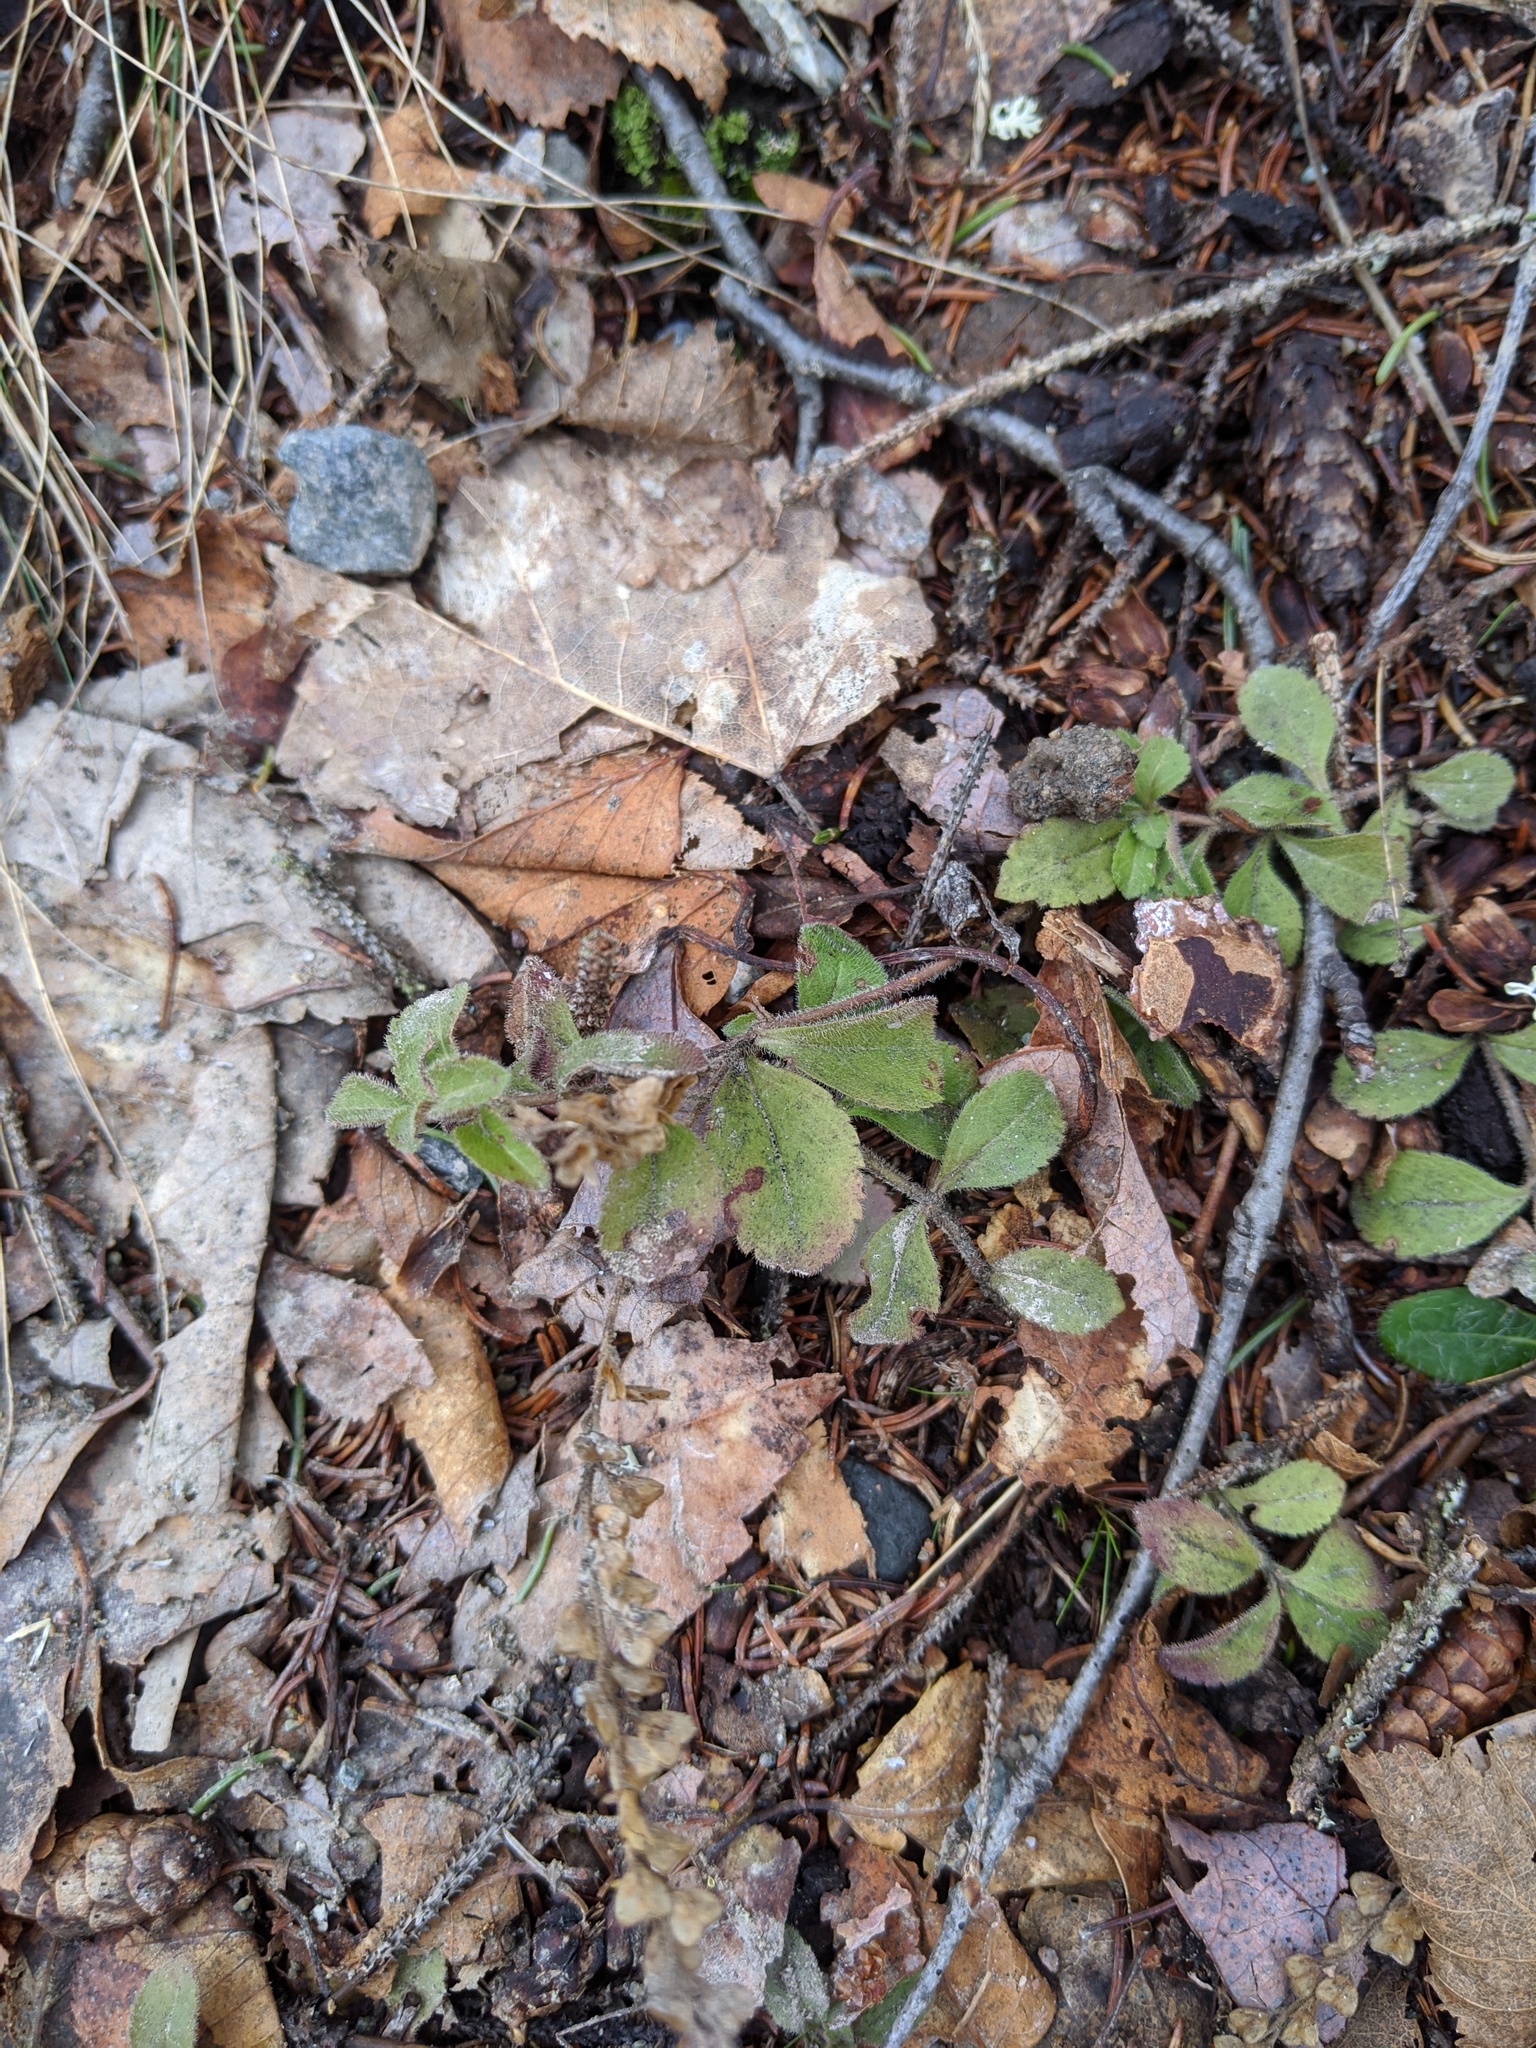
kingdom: Plantae
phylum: Tracheophyta
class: Magnoliopsida
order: Lamiales
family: Plantaginaceae
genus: Veronica
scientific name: Veronica officinalis
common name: Common speedwell
